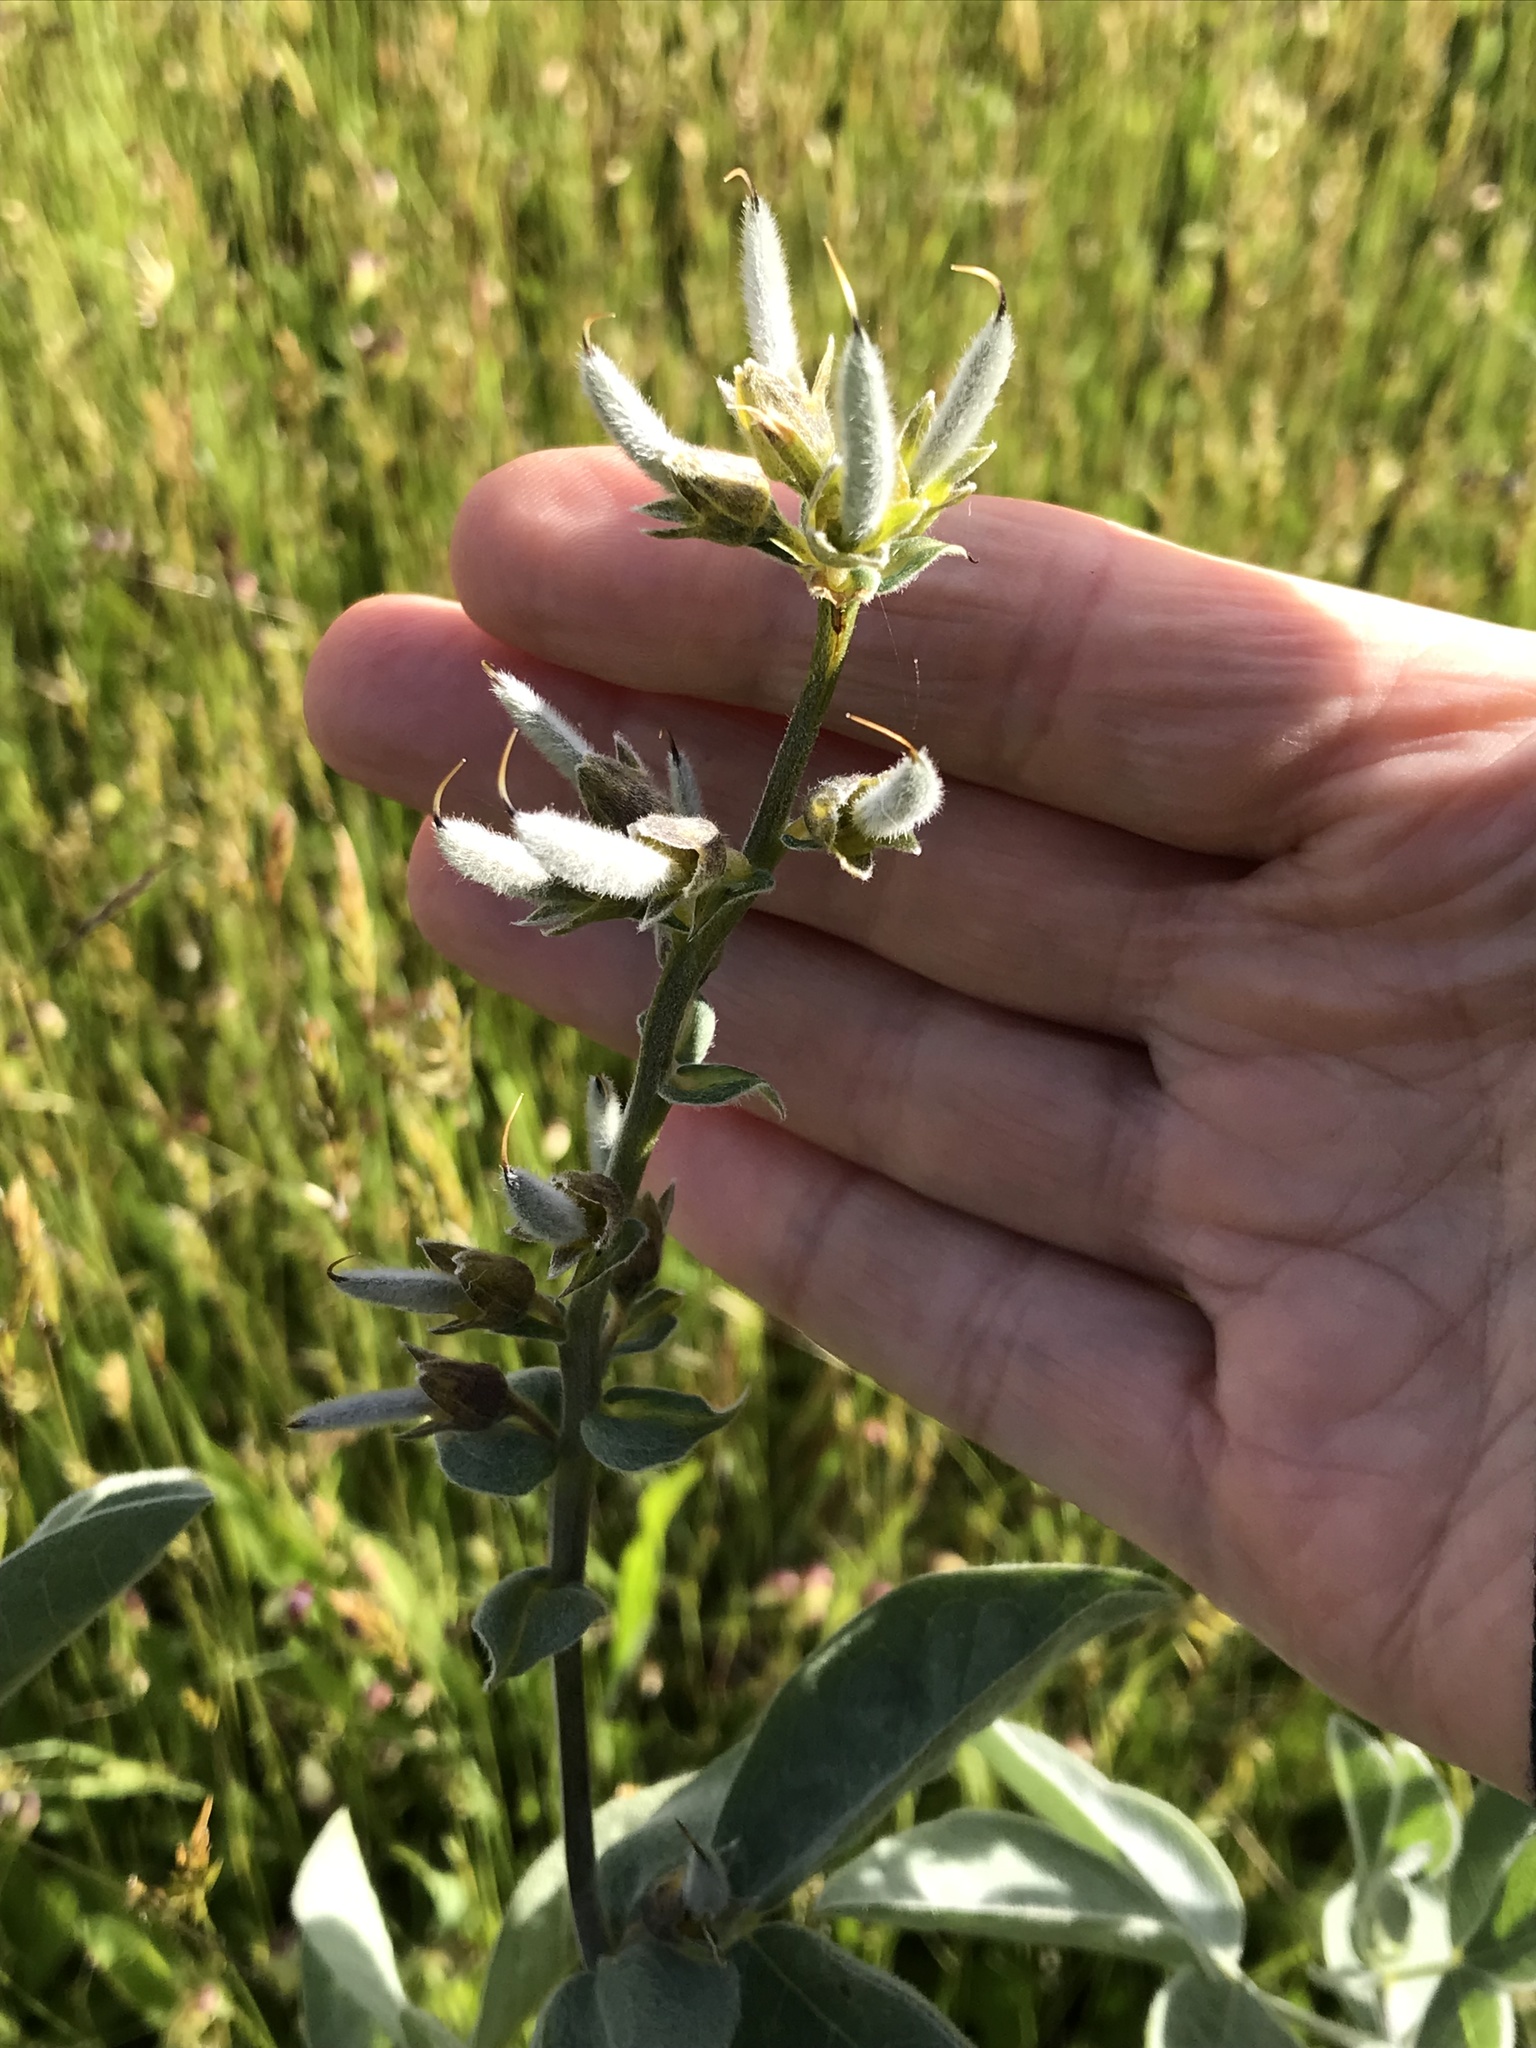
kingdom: Plantae
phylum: Tracheophyta
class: Magnoliopsida
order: Fabales
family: Fabaceae
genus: Thermopsis
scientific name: Thermopsis californica
